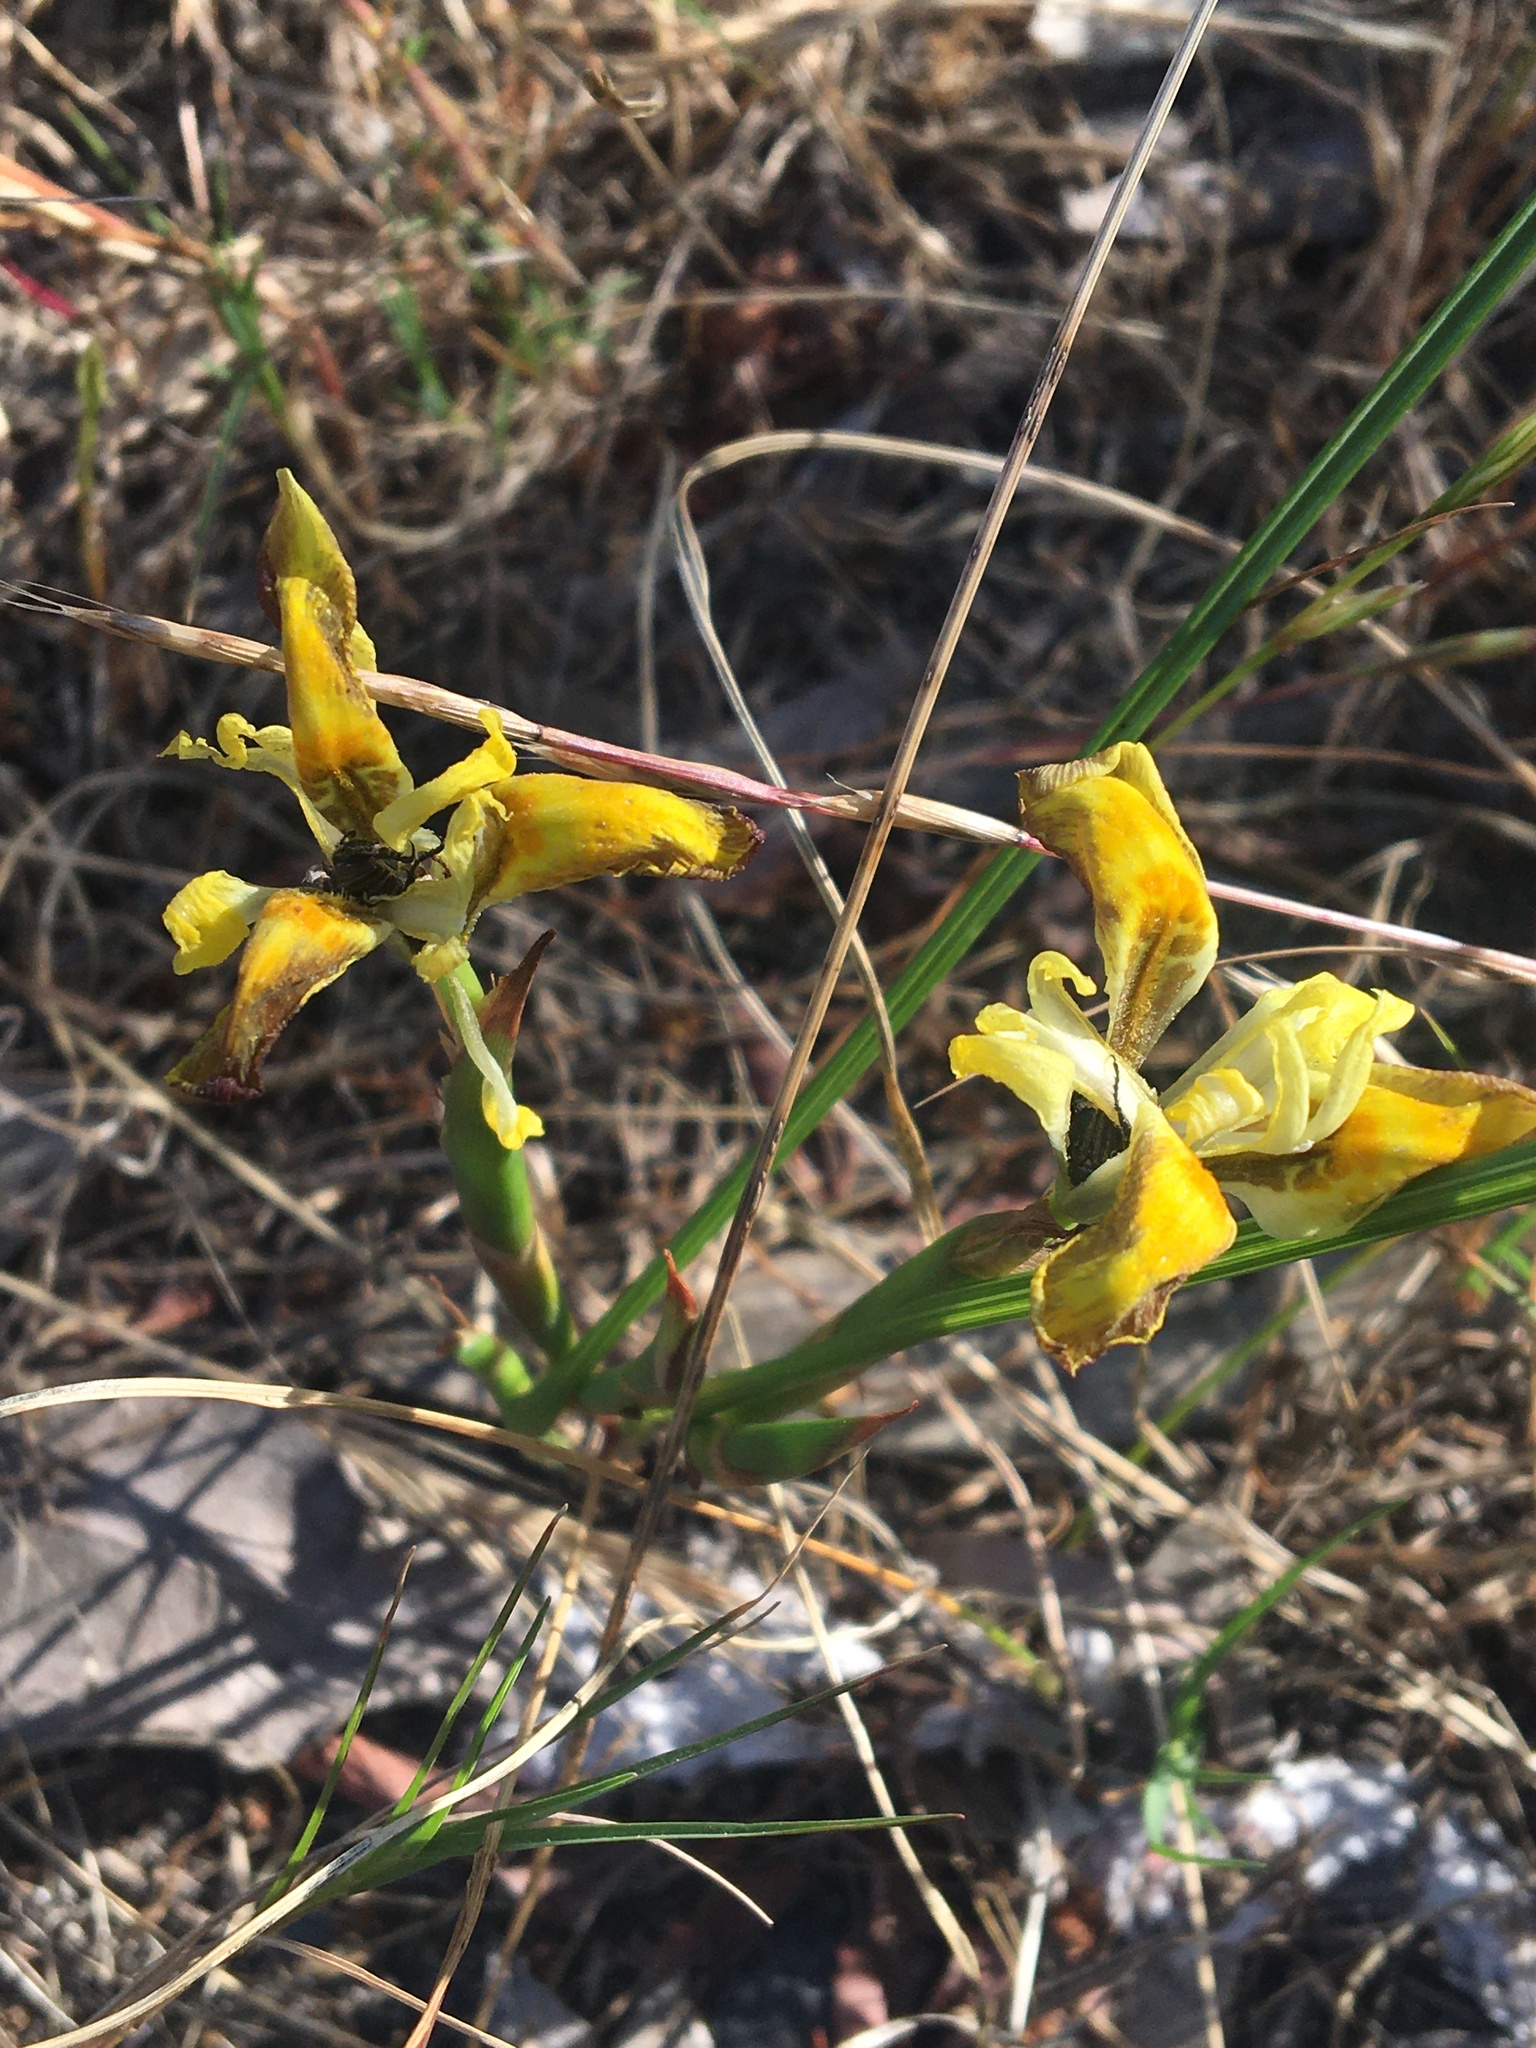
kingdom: Plantae
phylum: Tracheophyta
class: Liliopsida
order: Asparagales
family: Iridaceae
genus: Moraea
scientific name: Moraea fugax
